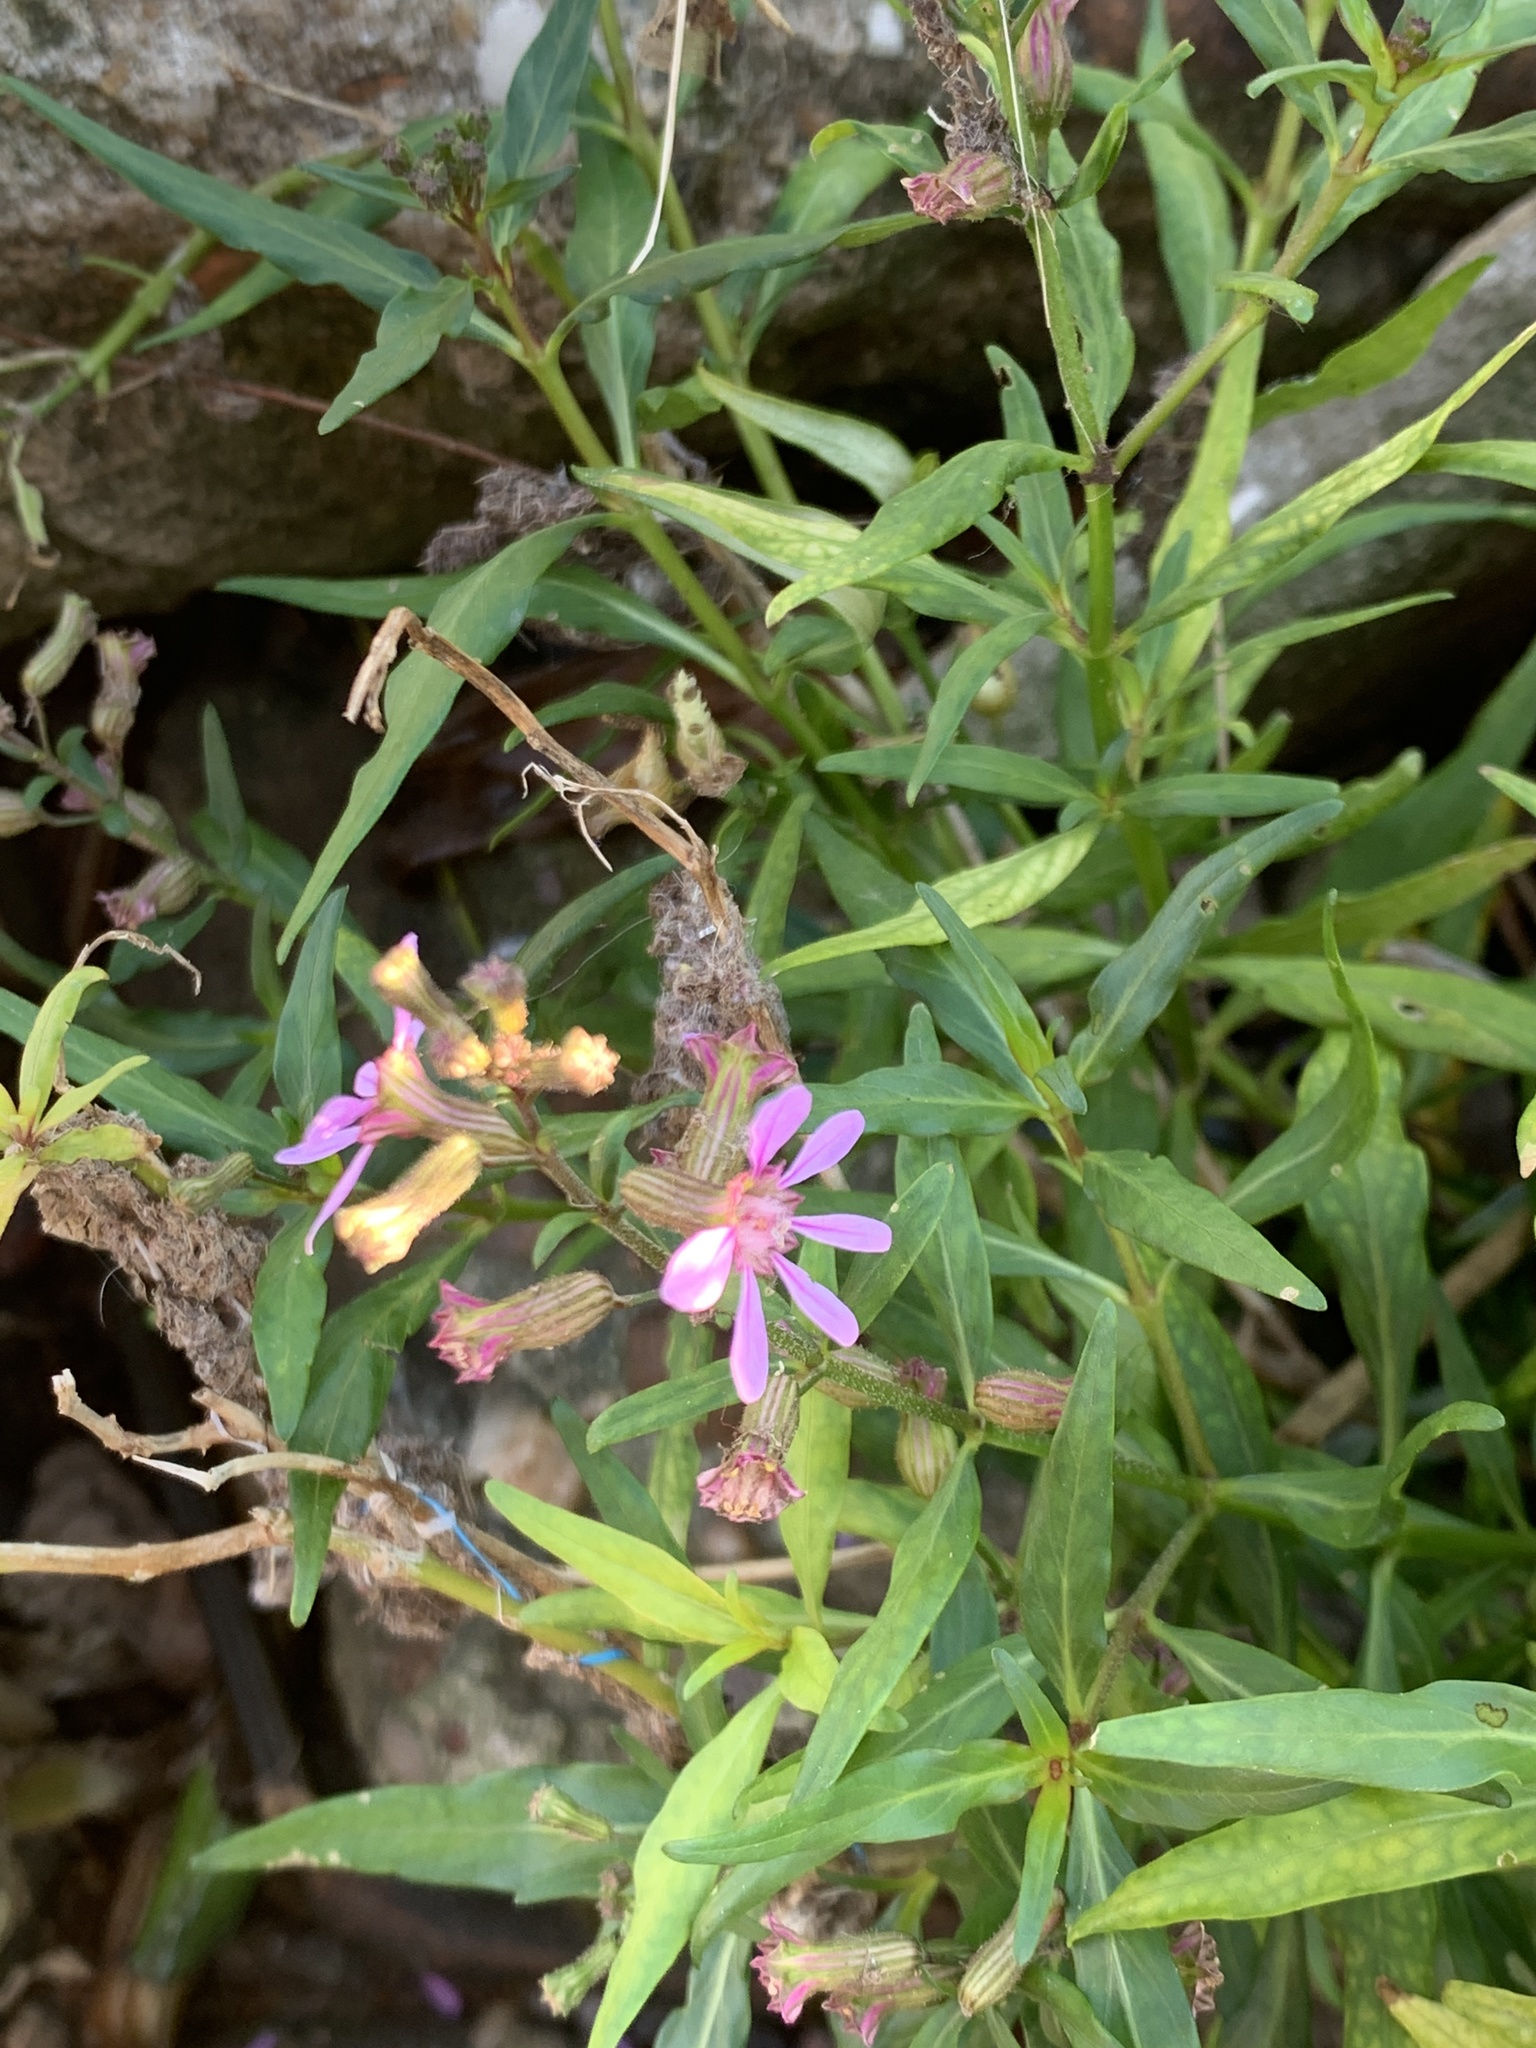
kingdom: Plantae
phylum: Tracheophyta
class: Magnoliopsida
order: Myrtales
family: Lythraceae
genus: Cuphea
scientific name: Cuphea fruticosa
